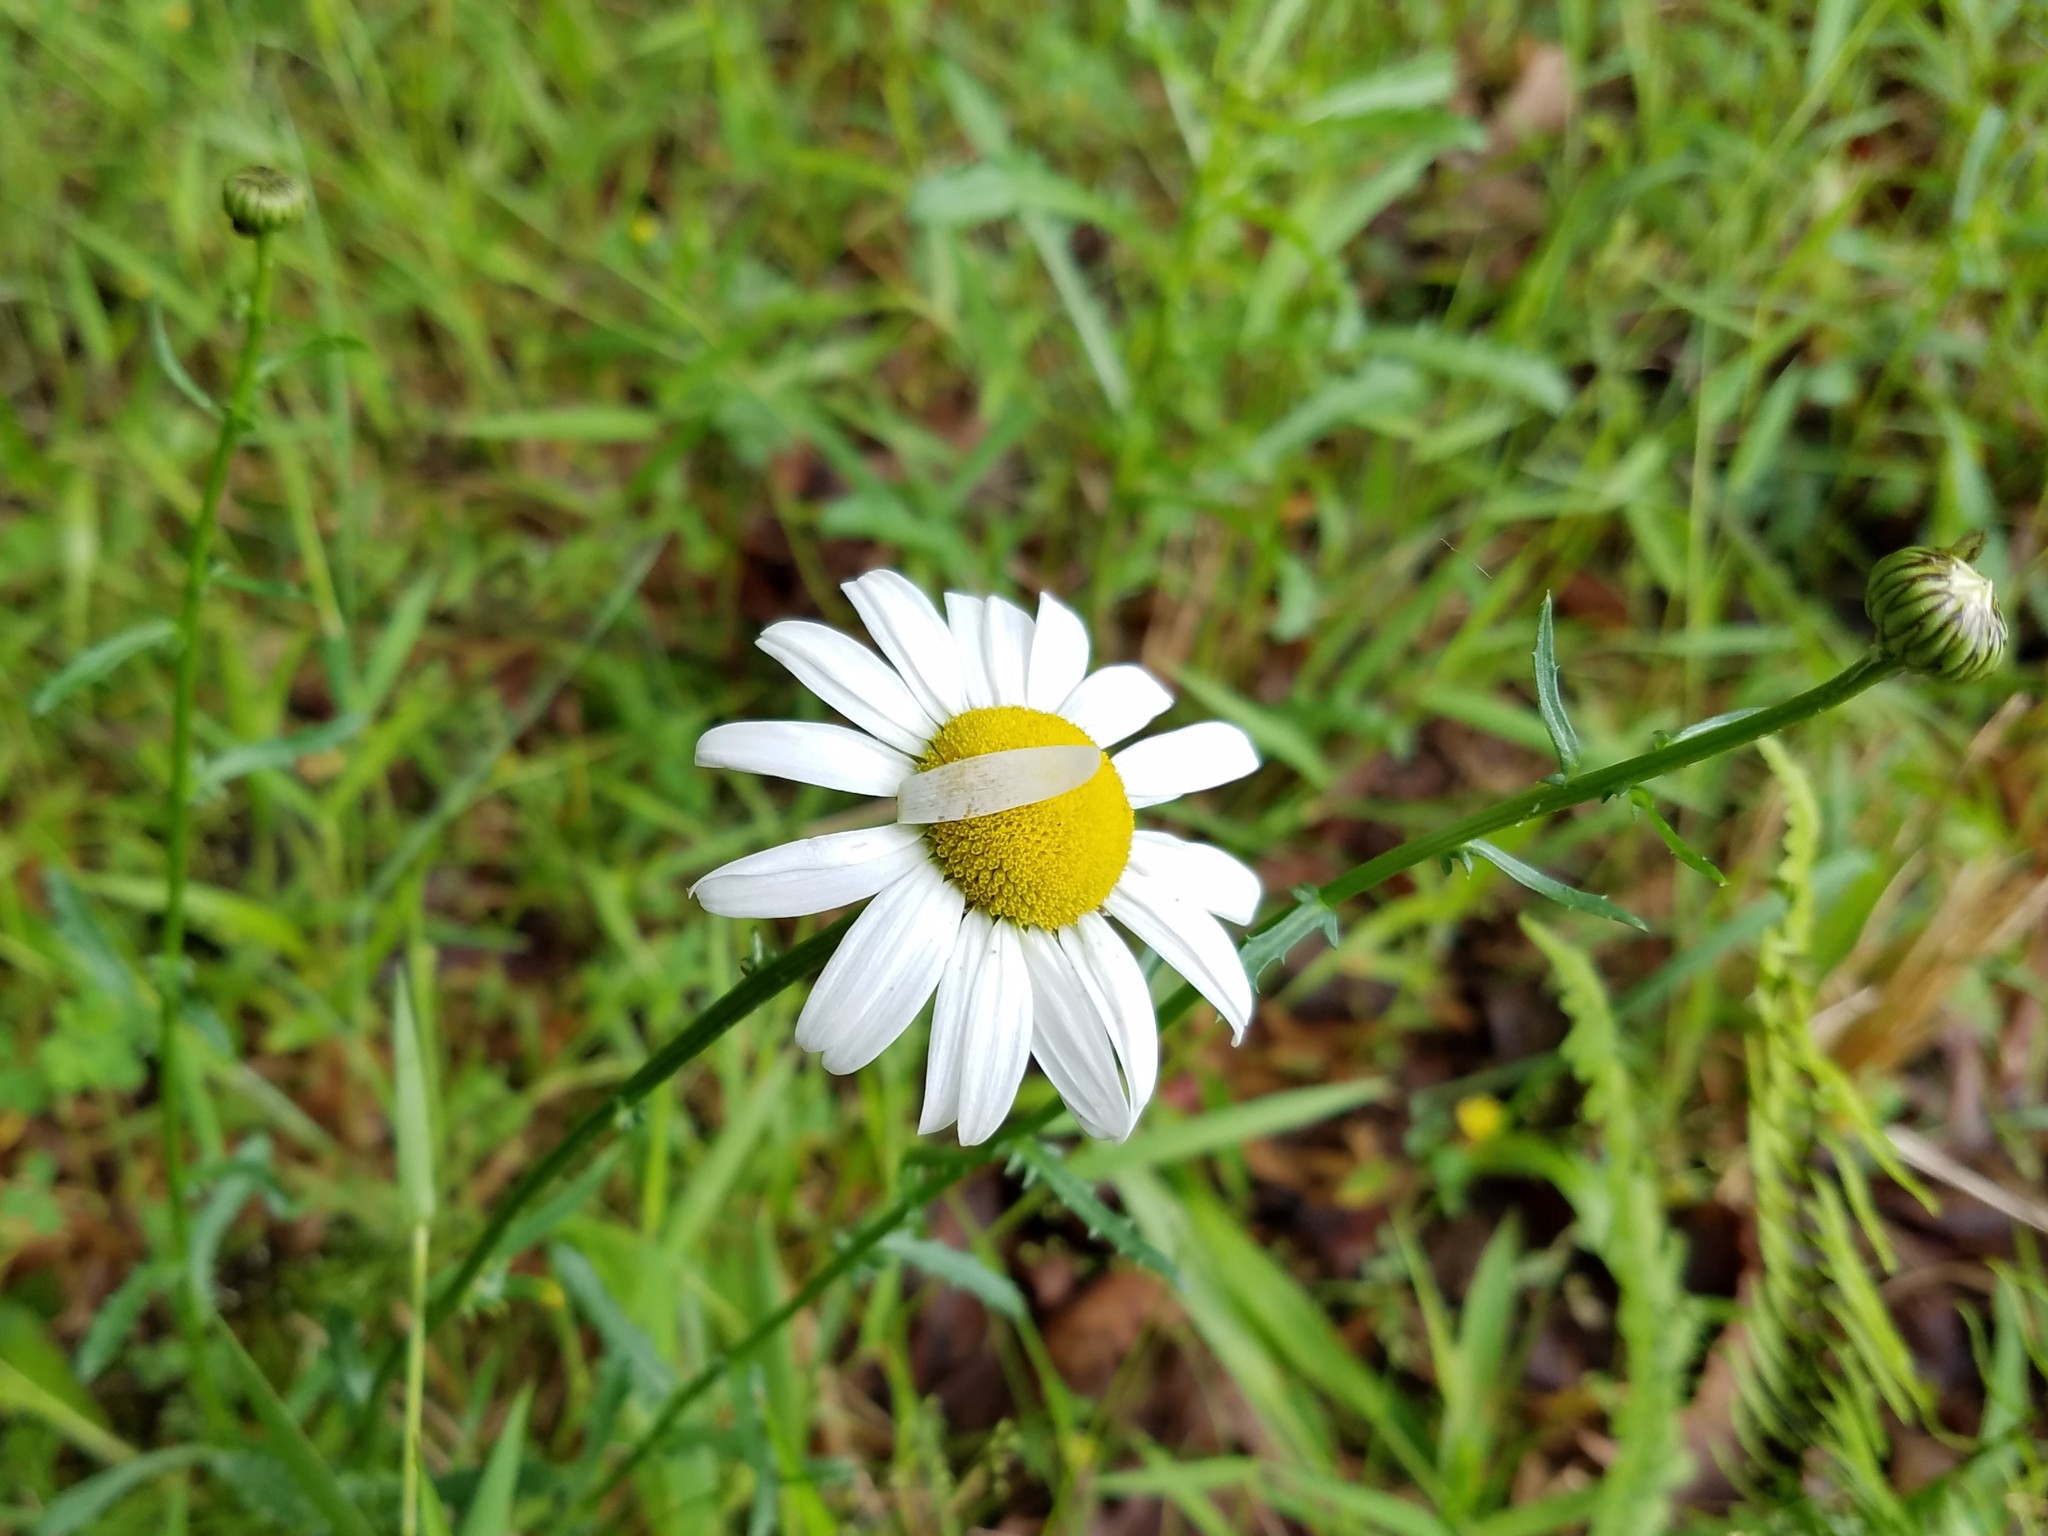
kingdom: Plantae
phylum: Tracheophyta
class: Magnoliopsida
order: Asterales
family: Asteraceae
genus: Leucanthemum
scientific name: Leucanthemum vulgare
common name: Oxeye daisy
